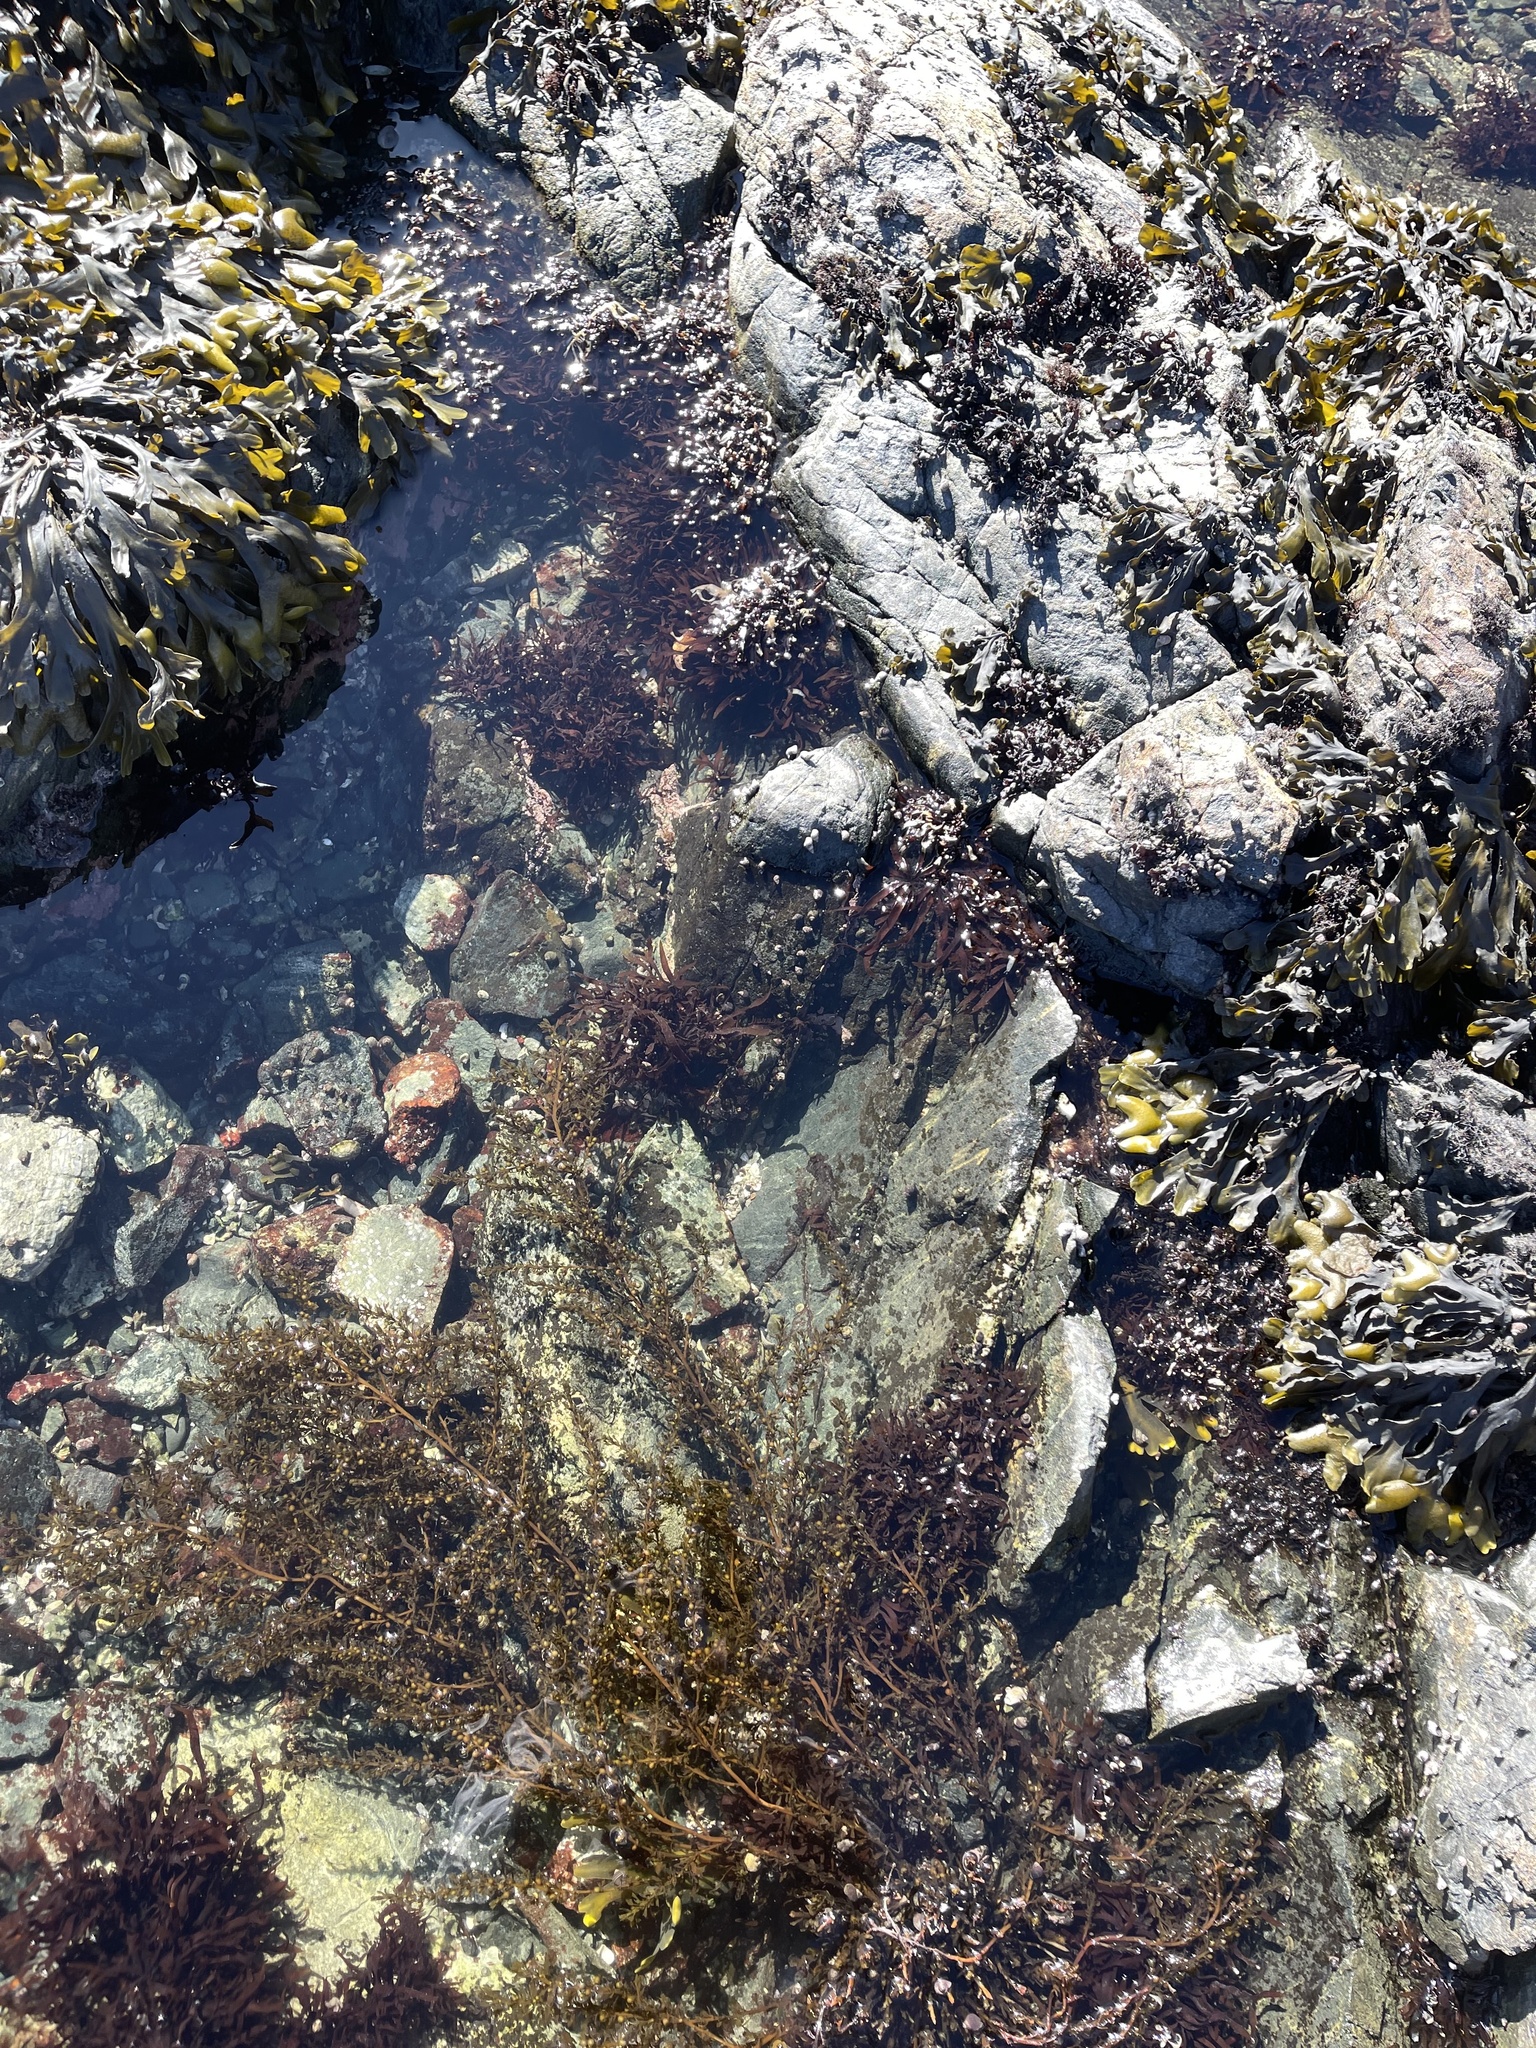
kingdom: Chromista
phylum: Ochrophyta
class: Phaeophyceae
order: Fucales
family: Sargassaceae
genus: Sargassum
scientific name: Sargassum muticum
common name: Japweed
